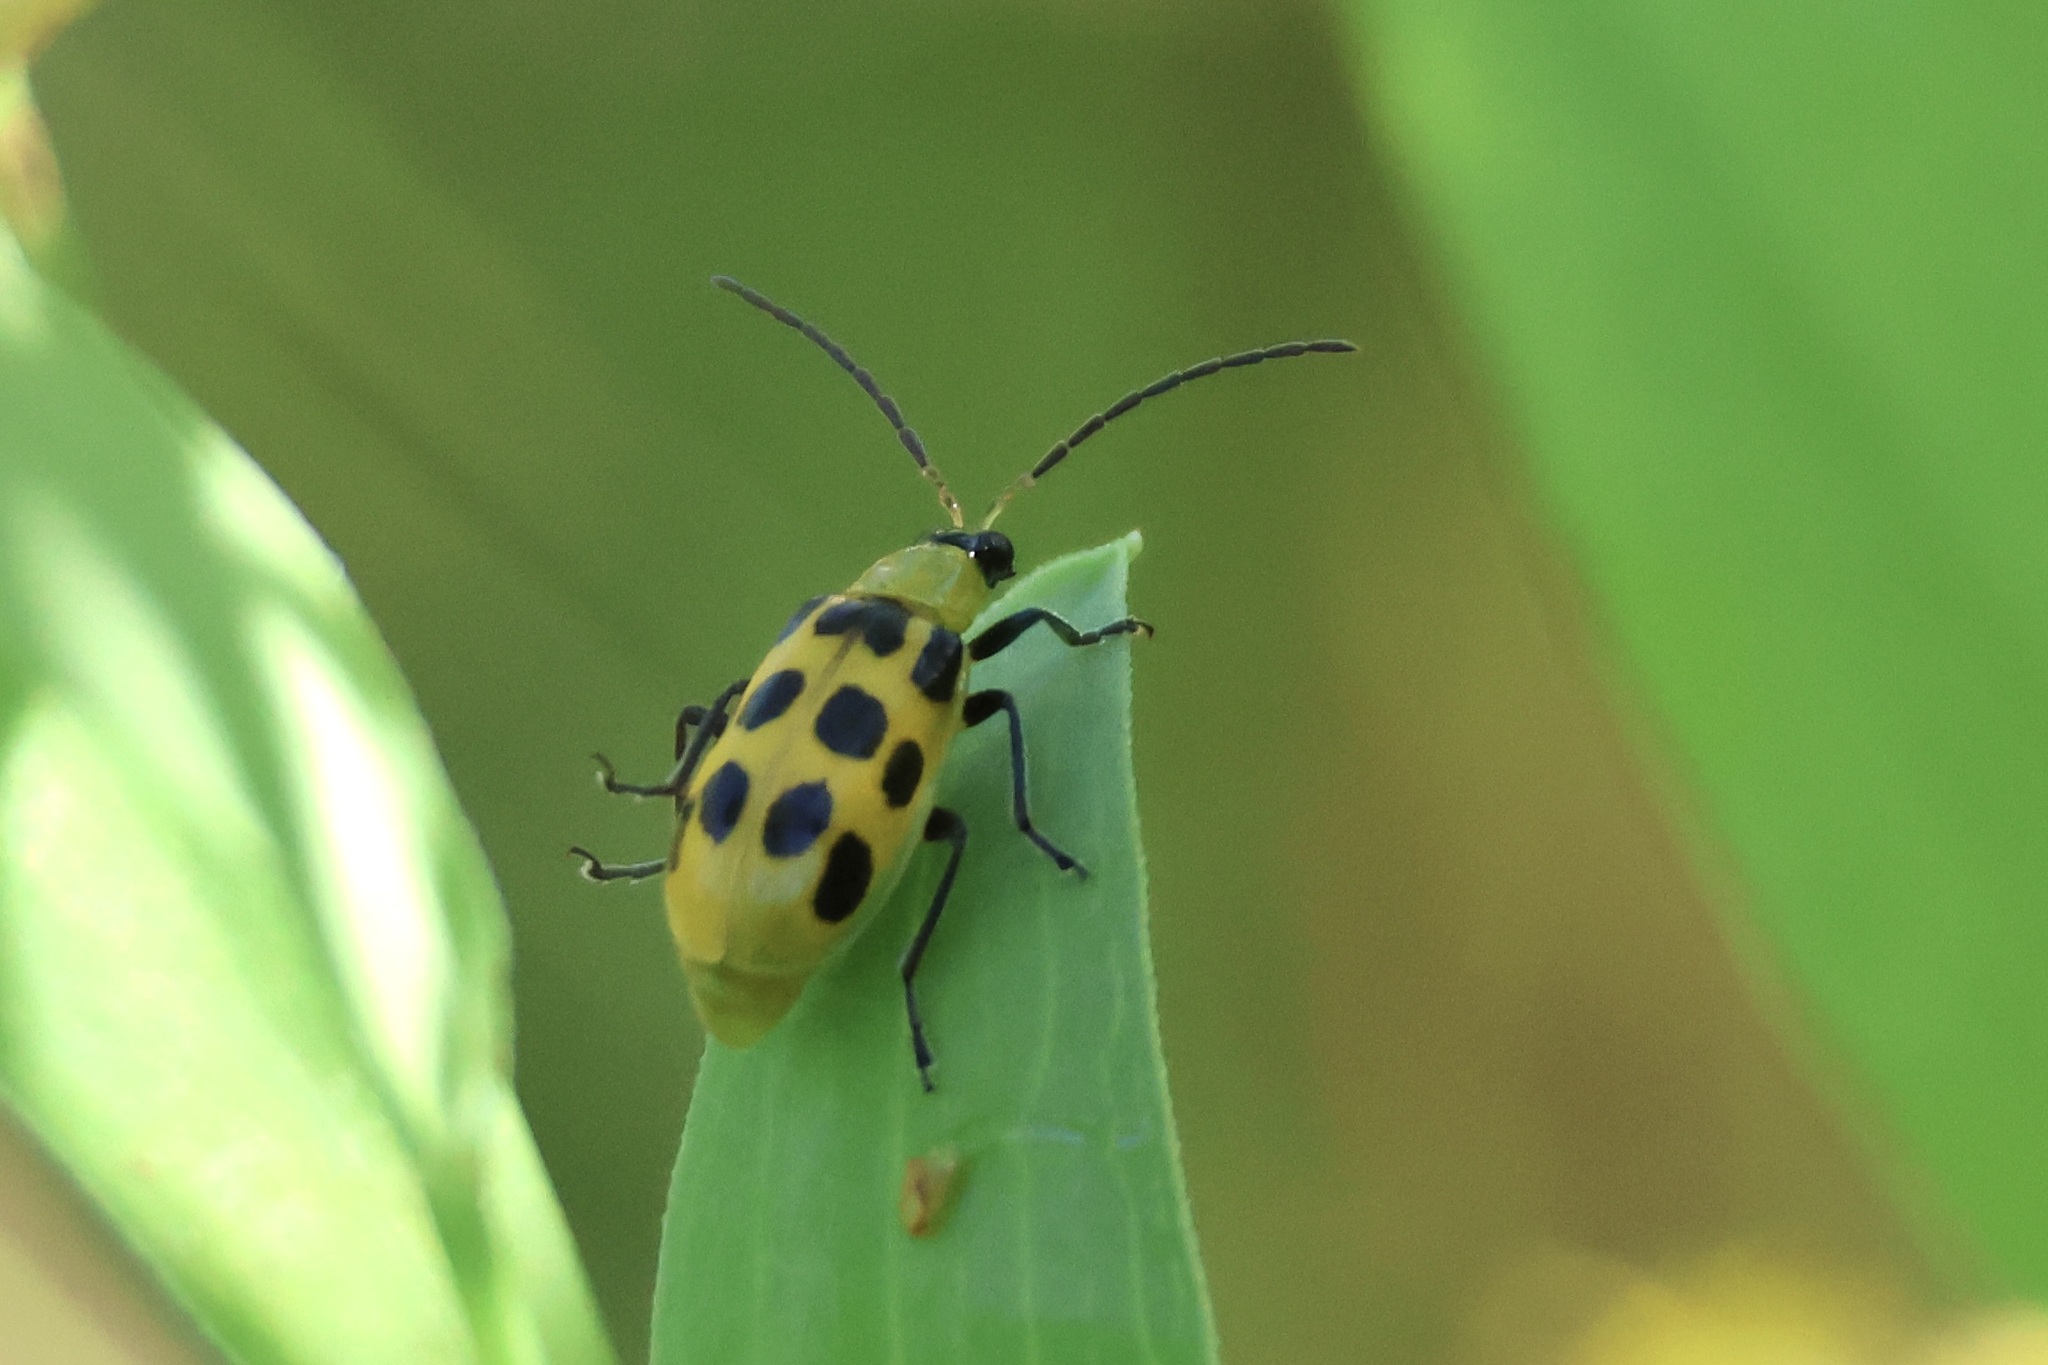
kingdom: Animalia
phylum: Arthropoda
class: Insecta
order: Coleoptera
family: Chrysomelidae
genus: Diabrotica
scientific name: Diabrotica undecimpunctata
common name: Spotted cucumber beetle
